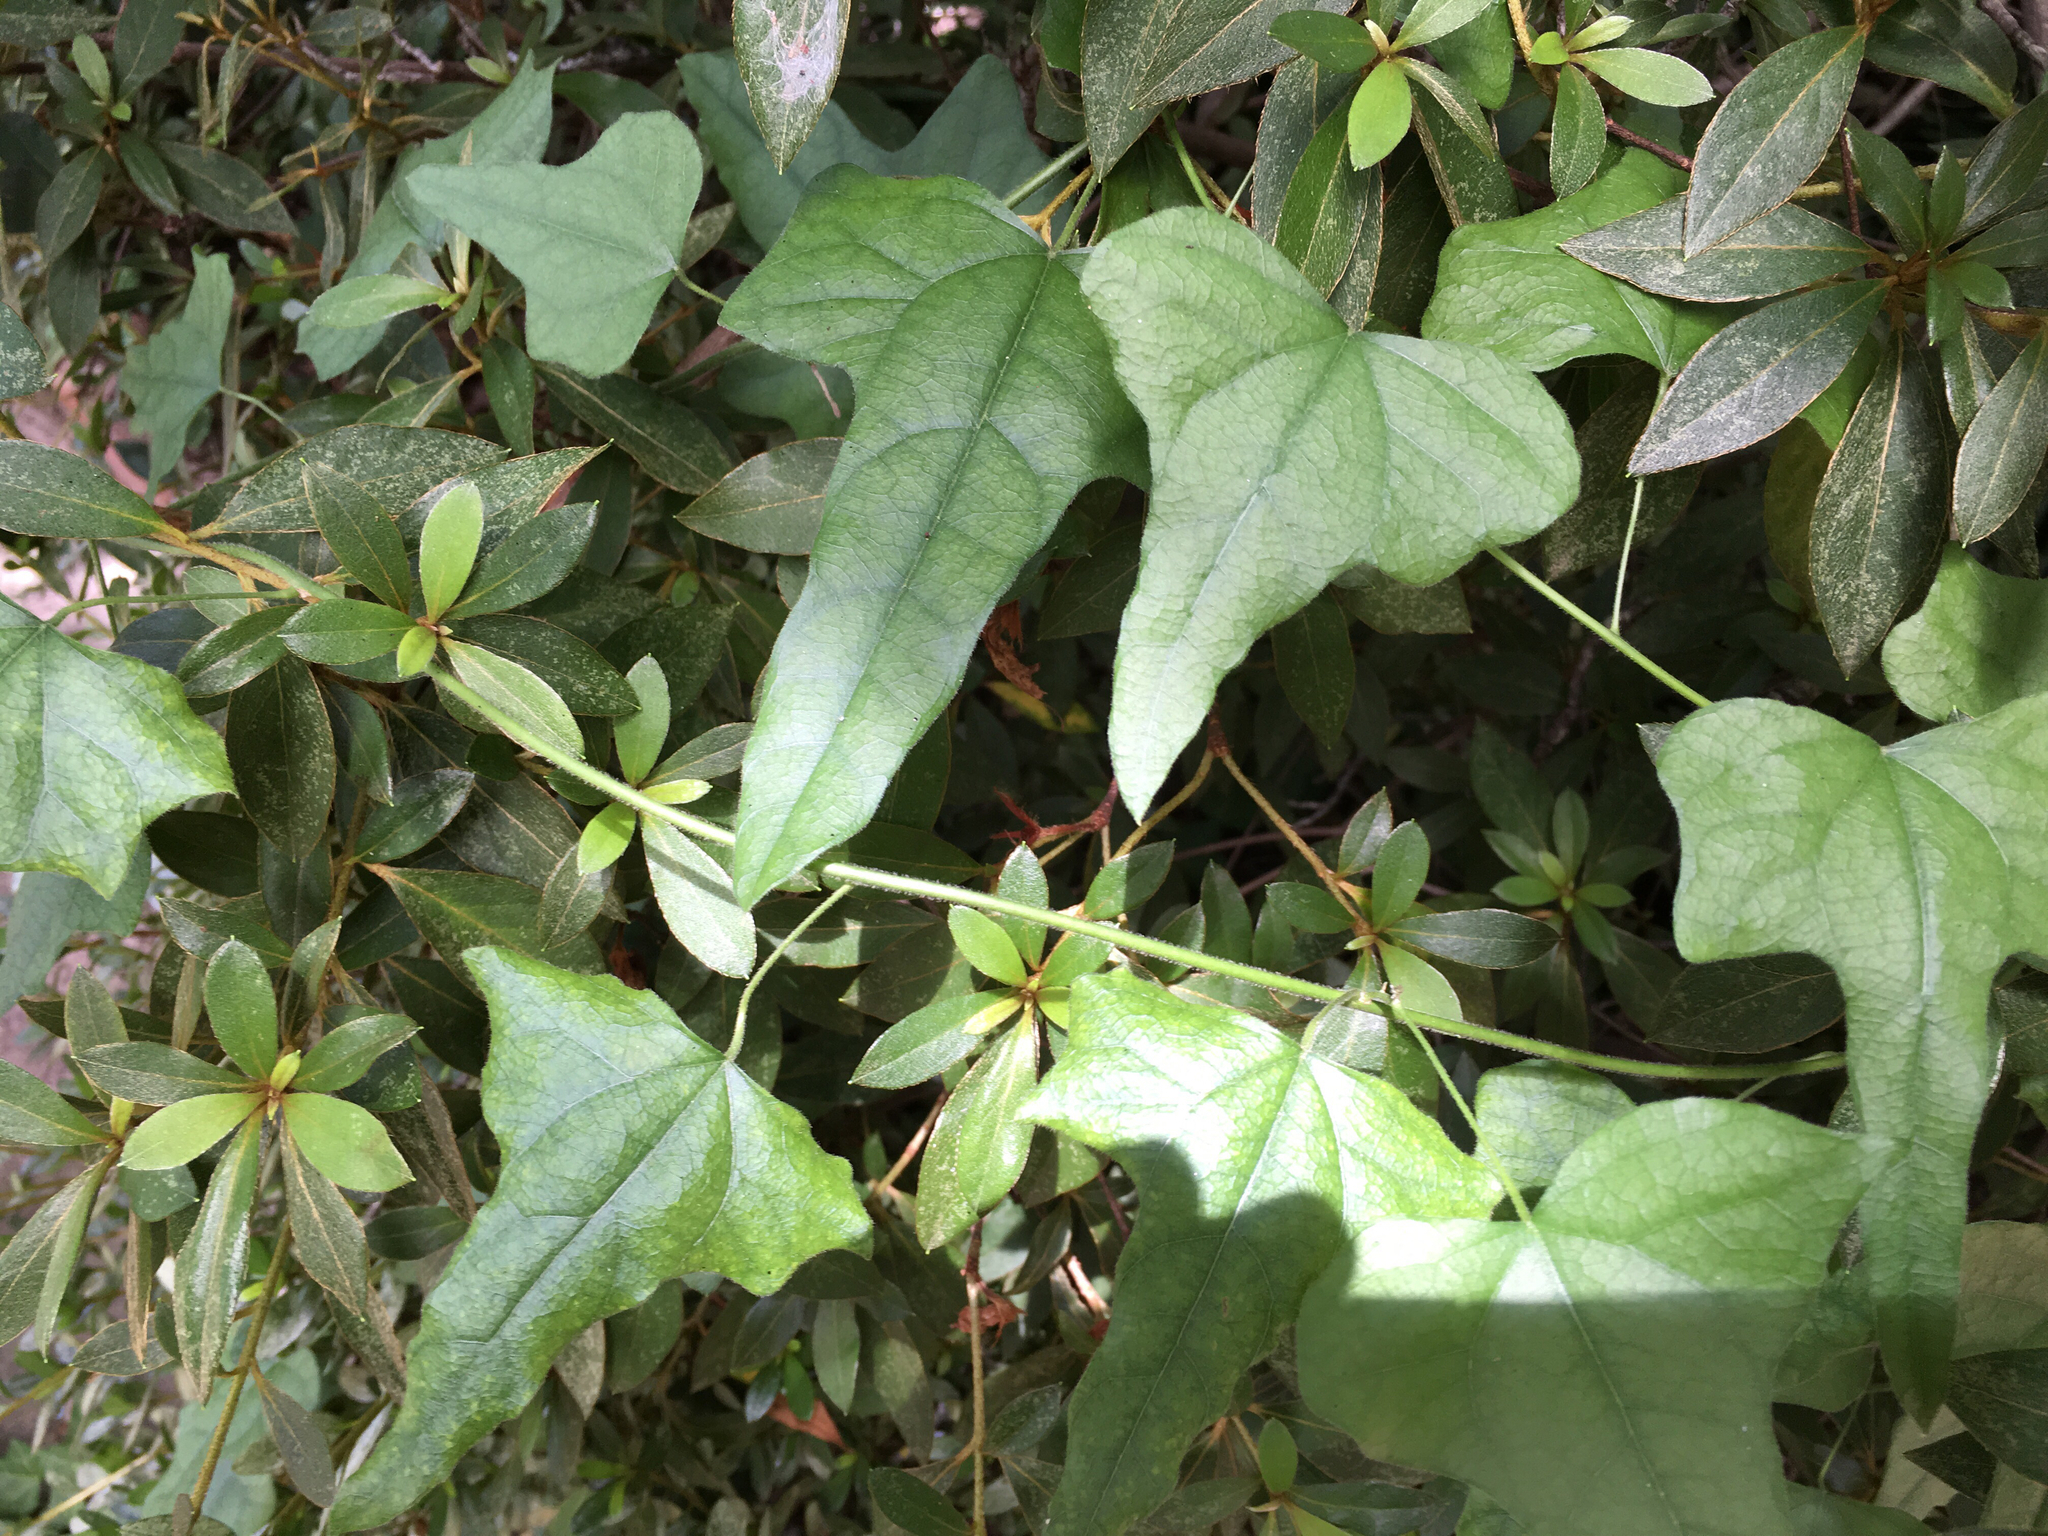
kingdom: Plantae
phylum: Tracheophyta
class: Magnoliopsida
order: Ranunculales
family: Menispermaceae
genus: Cocculus
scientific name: Cocculus carolinus
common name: Carolina moonseed
